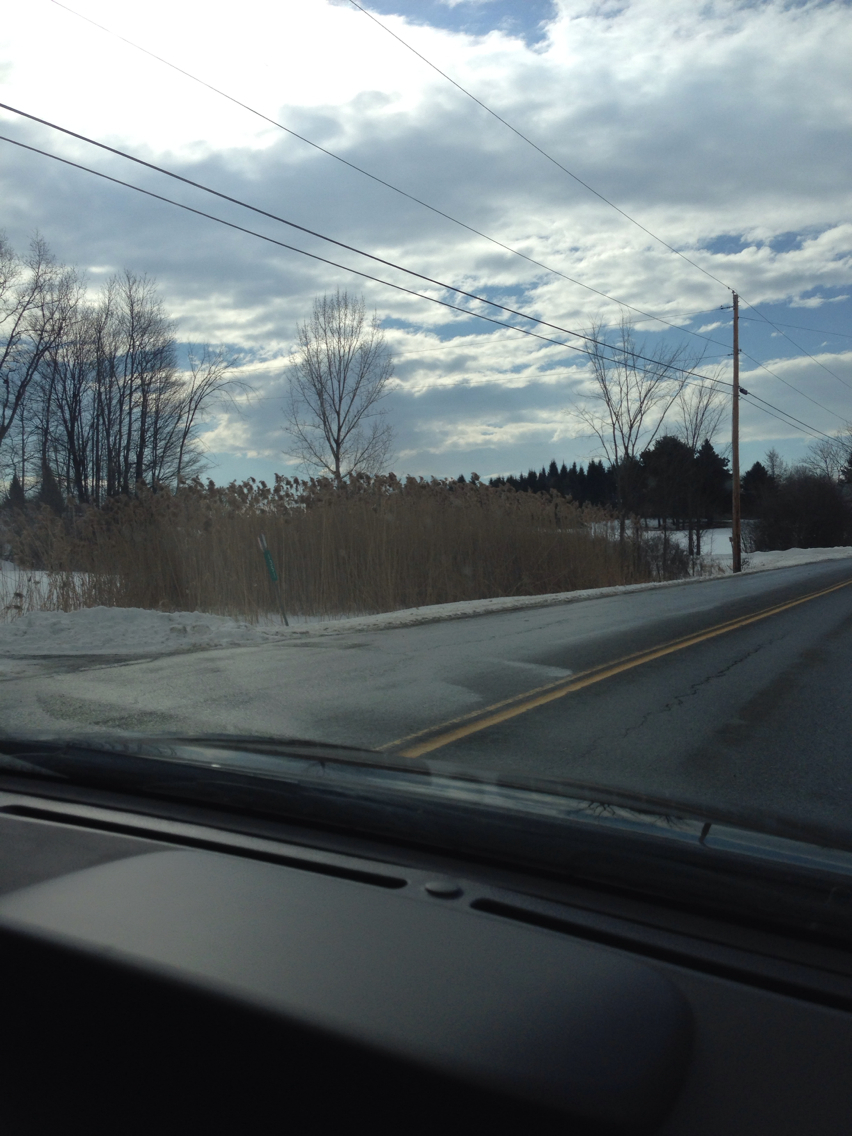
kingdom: Plantae
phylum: Tracheophyta
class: Liliopsida
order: Poales
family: Poaceae
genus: Phragmites
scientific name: Phragmites australis
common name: Common reed
